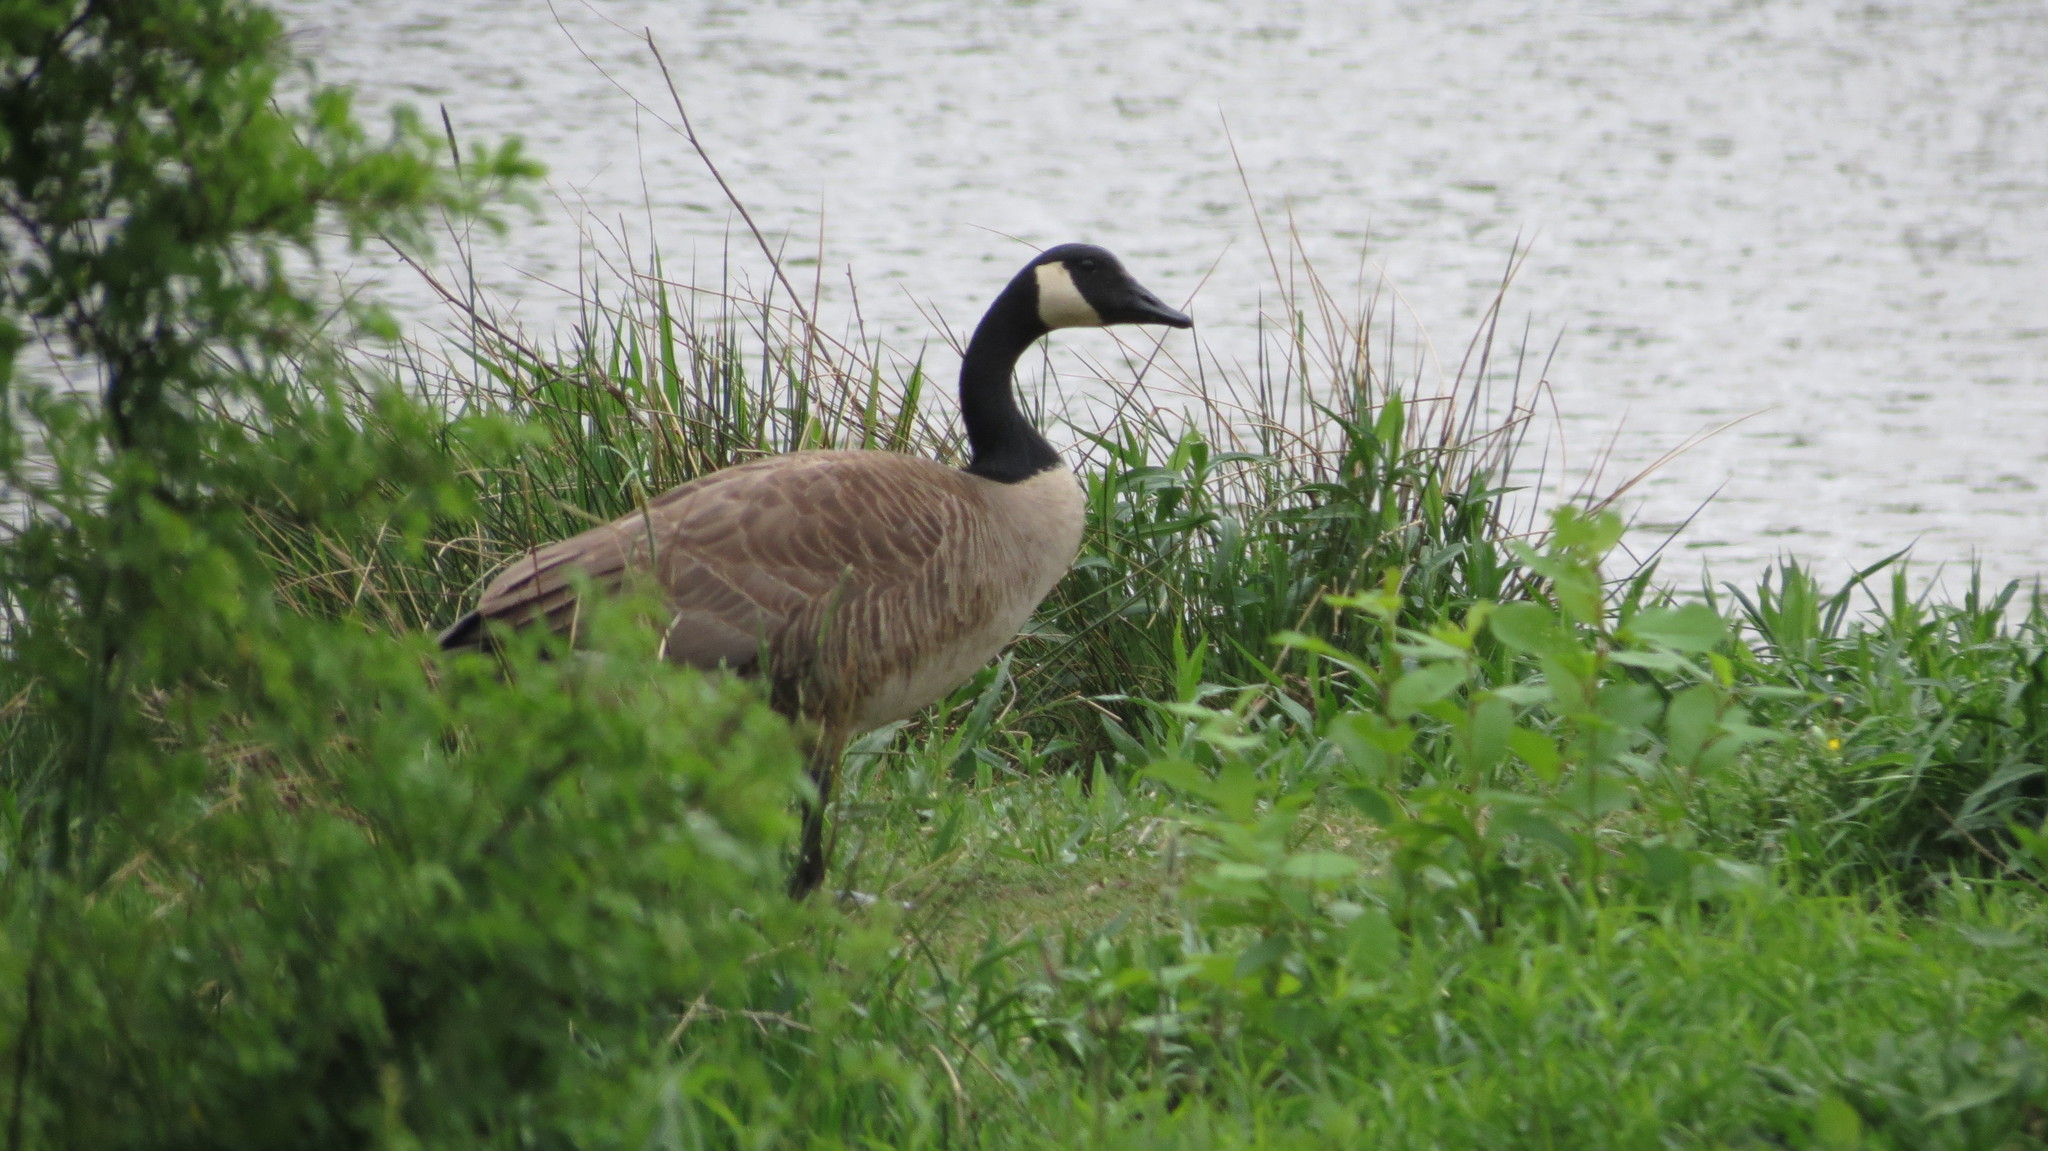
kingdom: Animalia
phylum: Chordata
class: Aves
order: Anseriformes
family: Anatidae
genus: Branta
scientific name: Branta canadensis
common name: Canada goose
